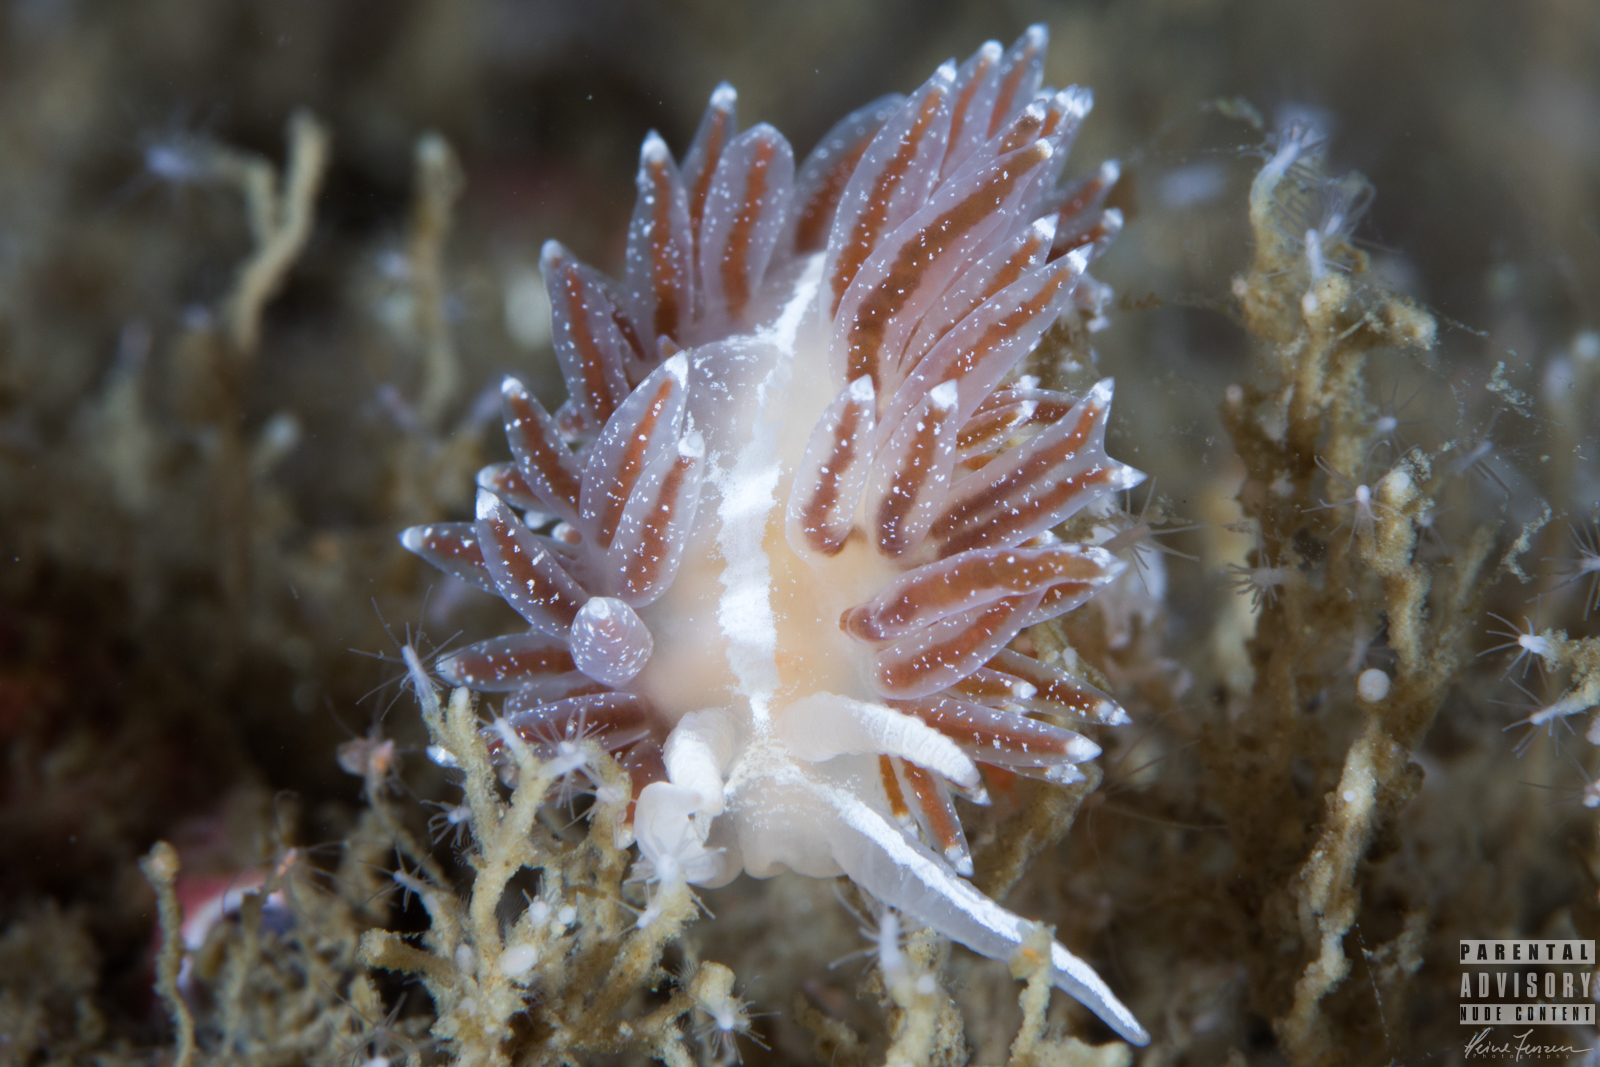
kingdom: Animalia
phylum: Mollusca
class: Gastropoda
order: Nudibranchia
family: Coryphellidae
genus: Coryphella
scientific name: Coryphella monicae
